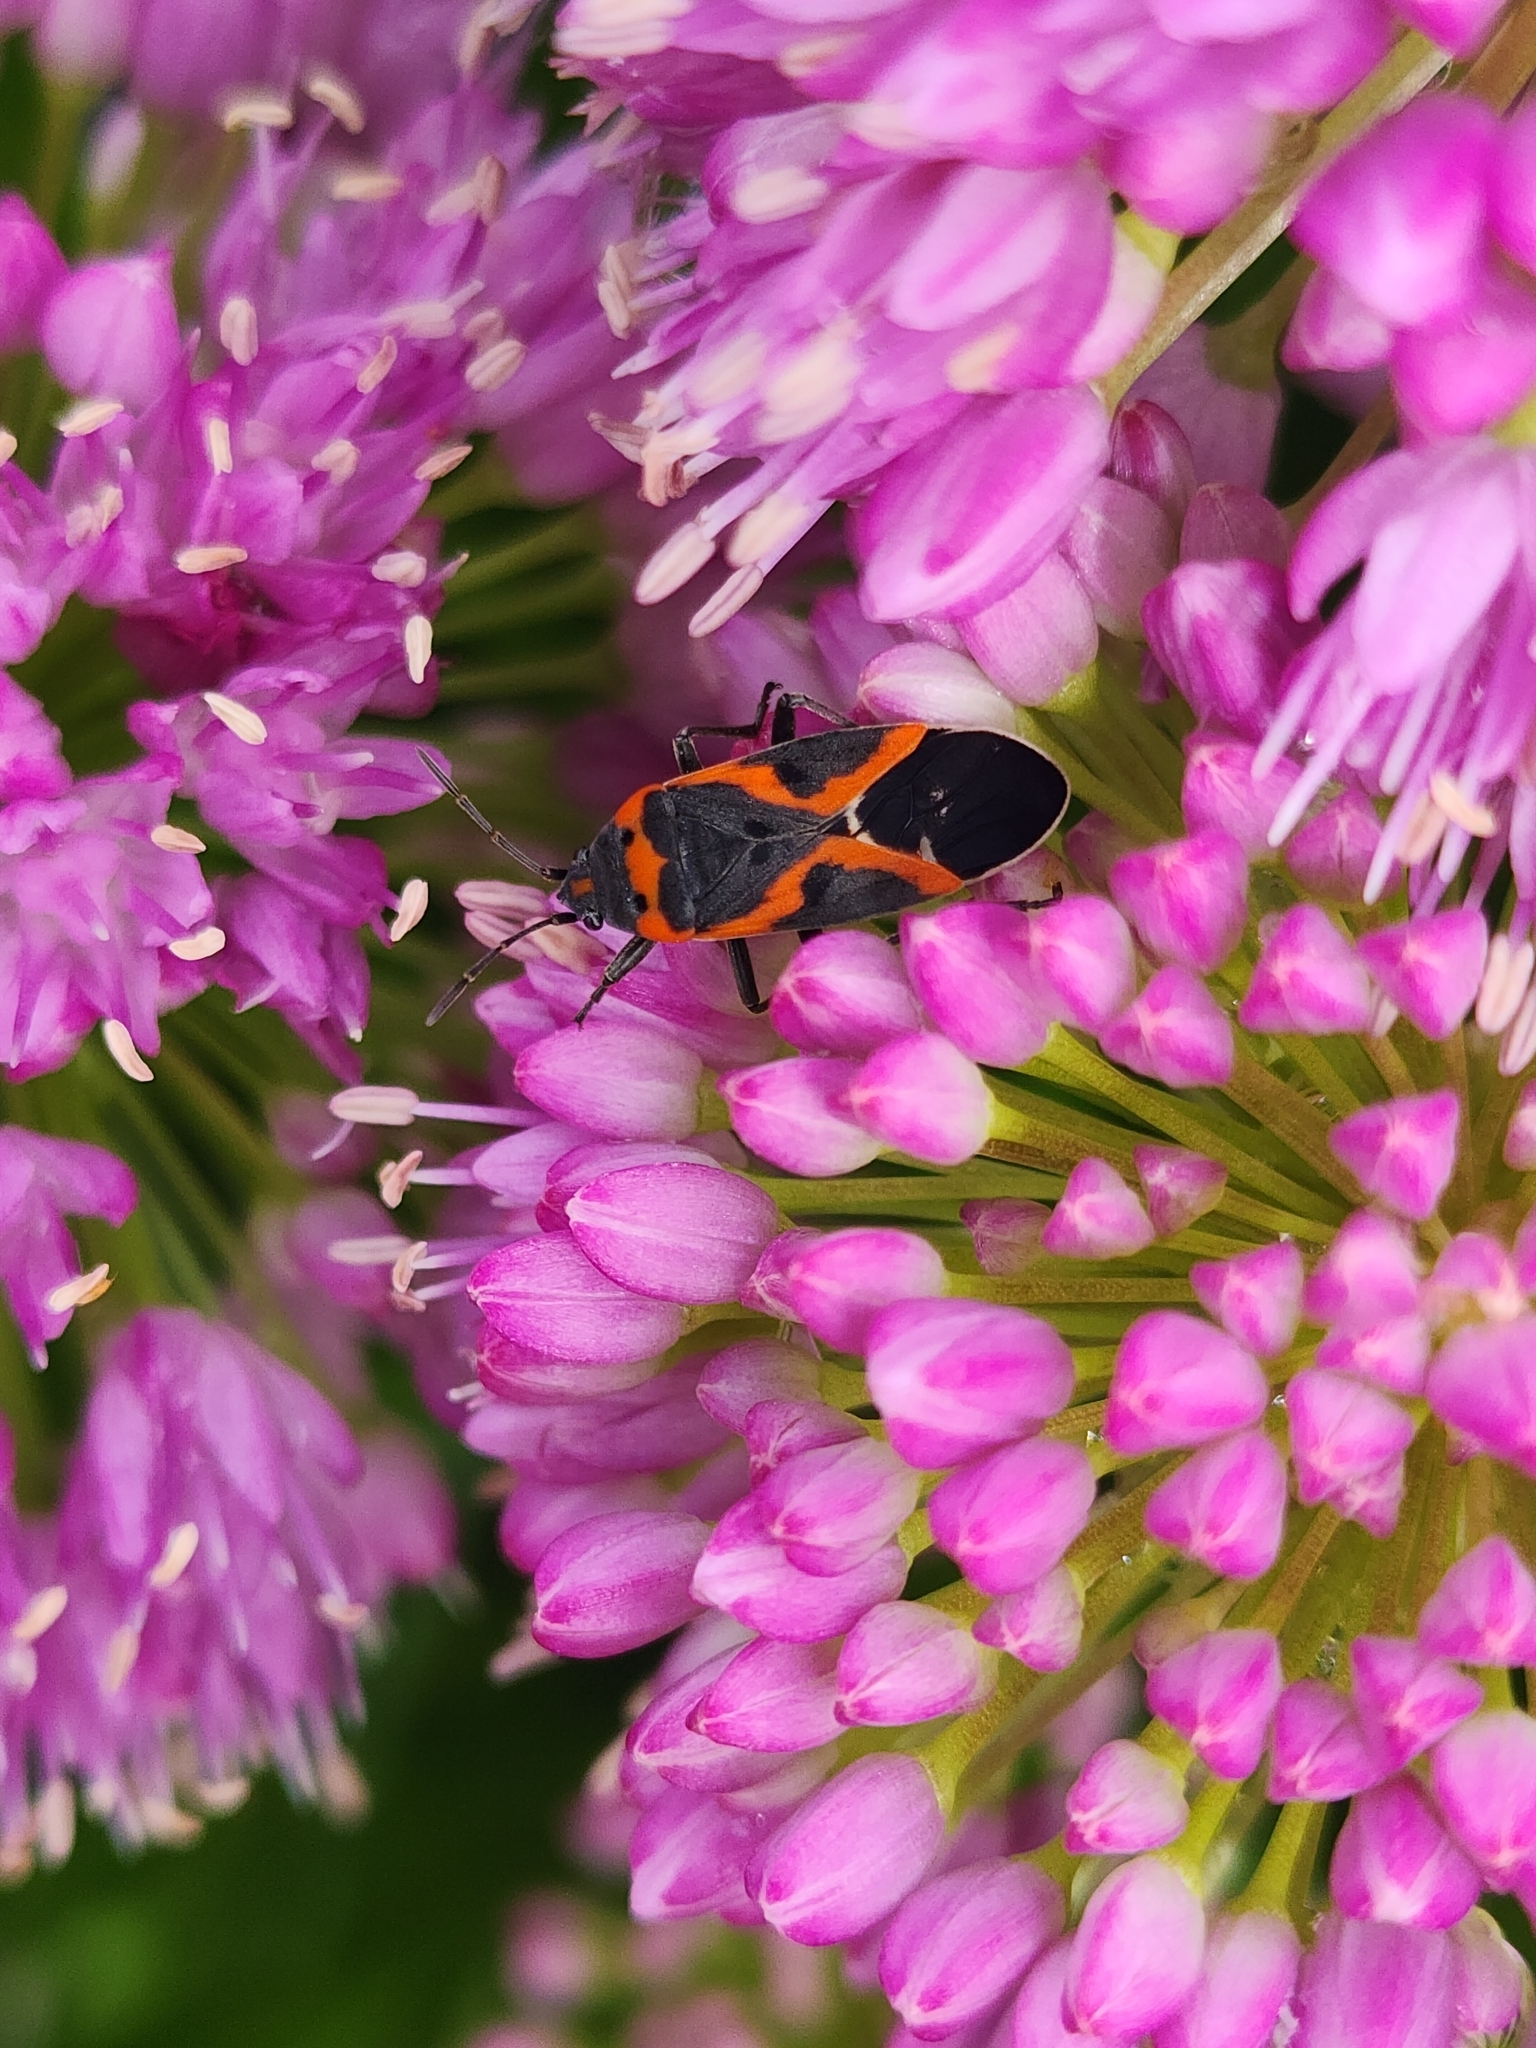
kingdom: Animalia
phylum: Arthropoda
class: Insecta
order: Hemiptera
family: Lygaeidae
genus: Lygaeus
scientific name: Lygaeus kalmii
